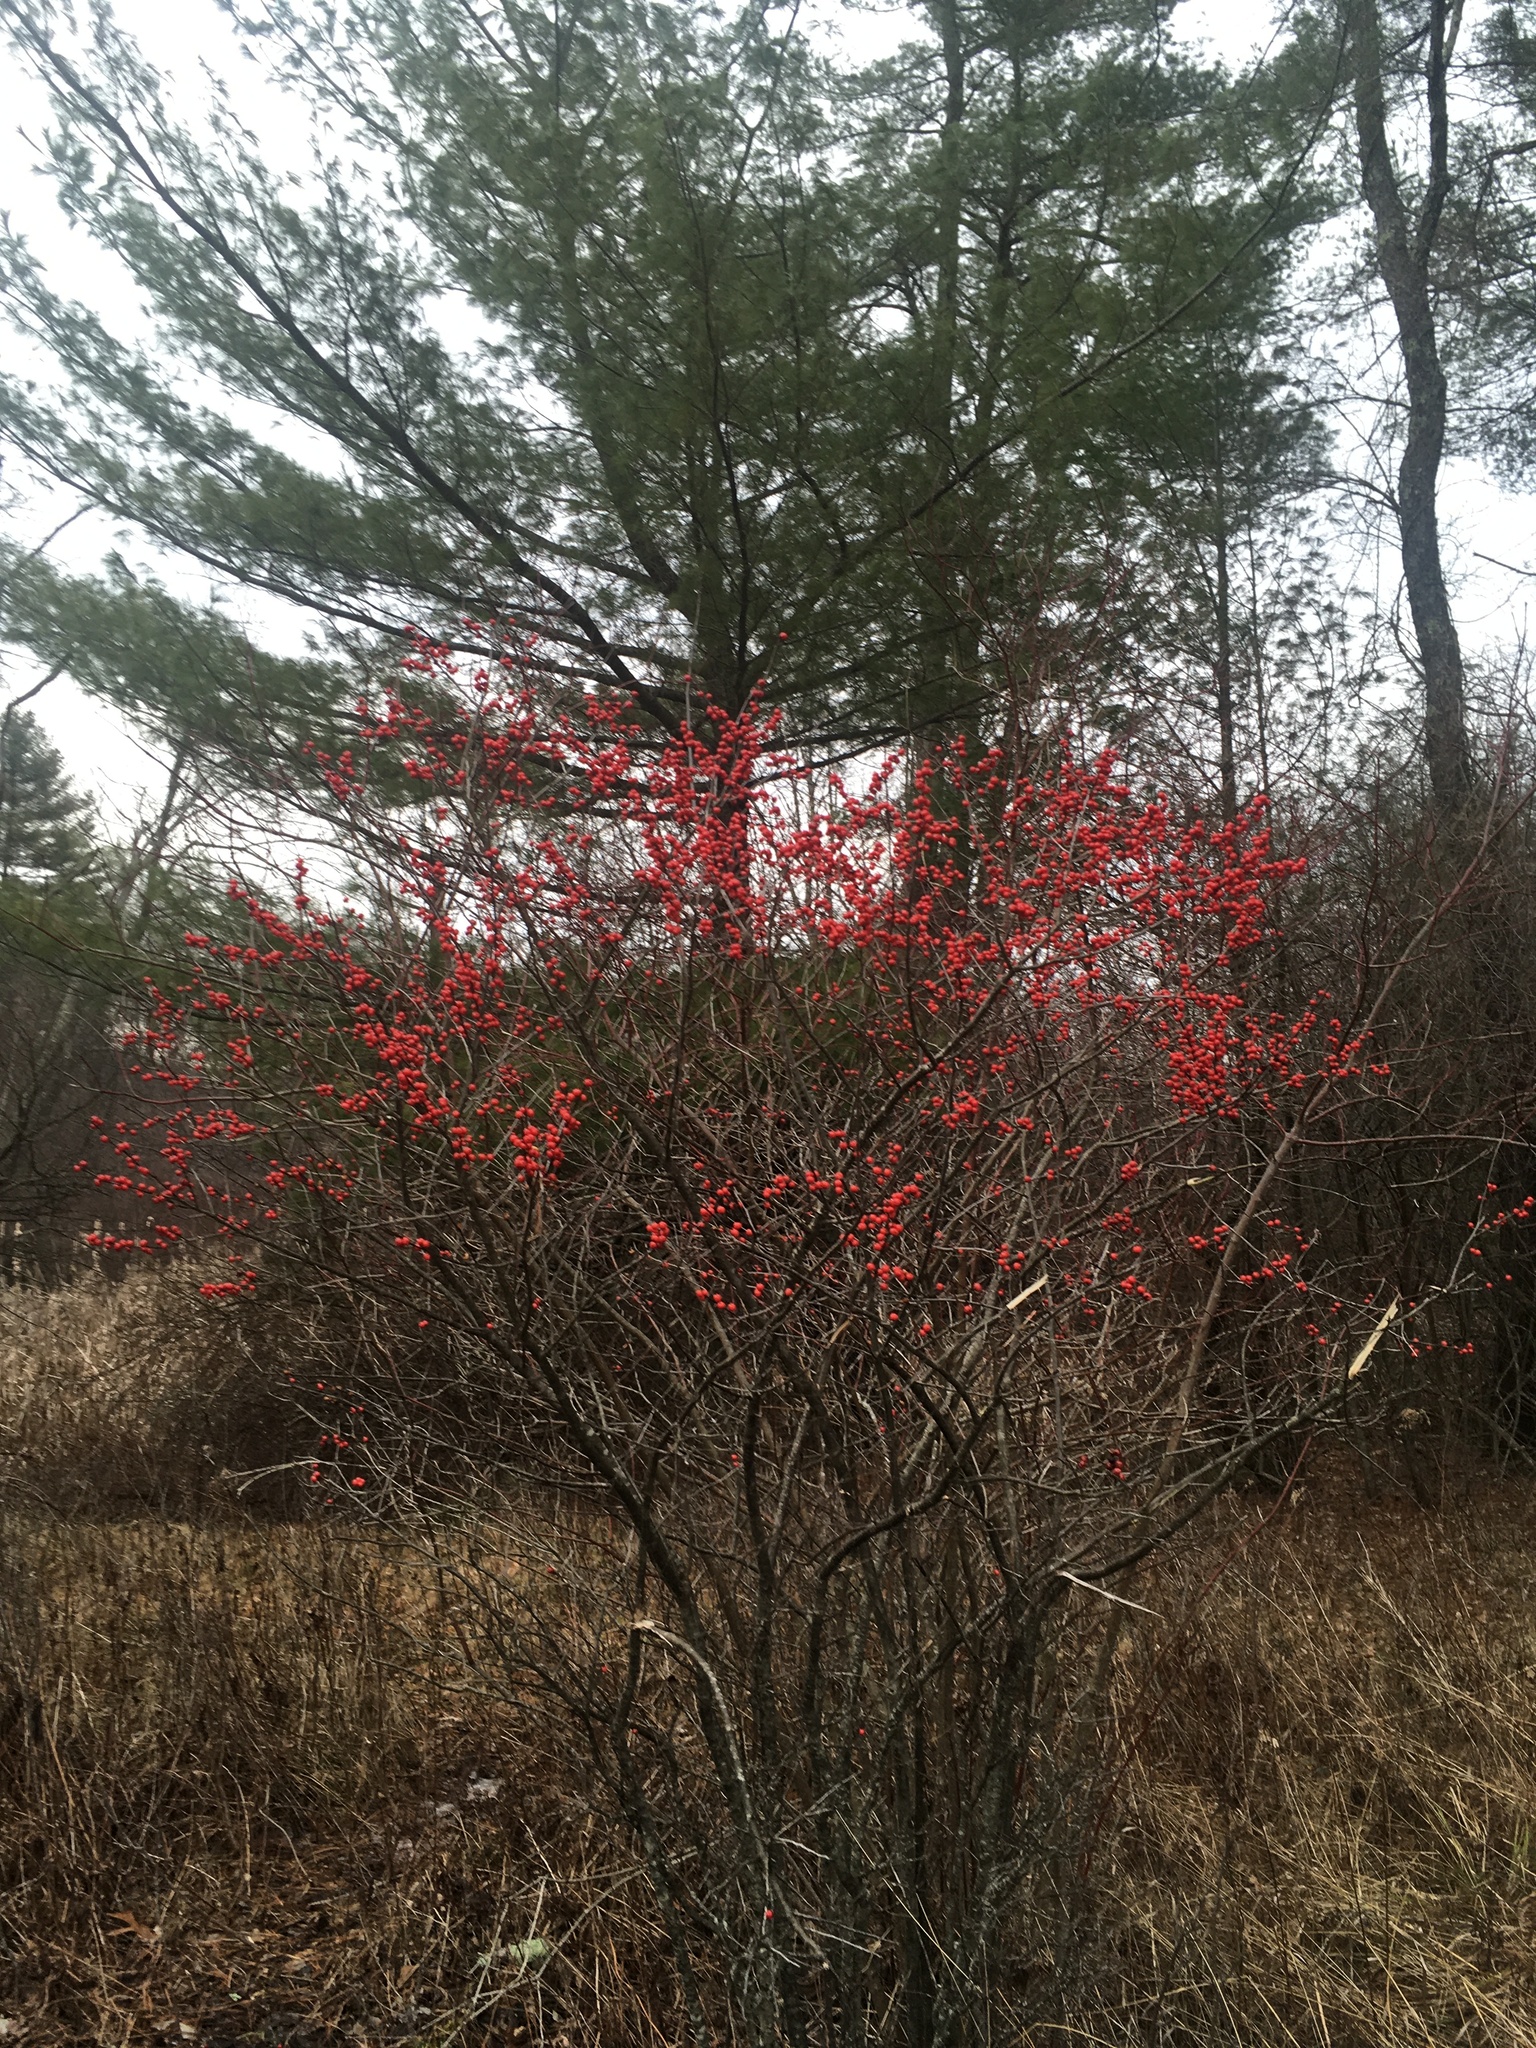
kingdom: Plantae
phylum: Tracheophyta
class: Magnoliopsida
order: Aquifoliales
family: Aquifoliaceae
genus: Ilex
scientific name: Ilex verticillata
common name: Virginia winterberry
